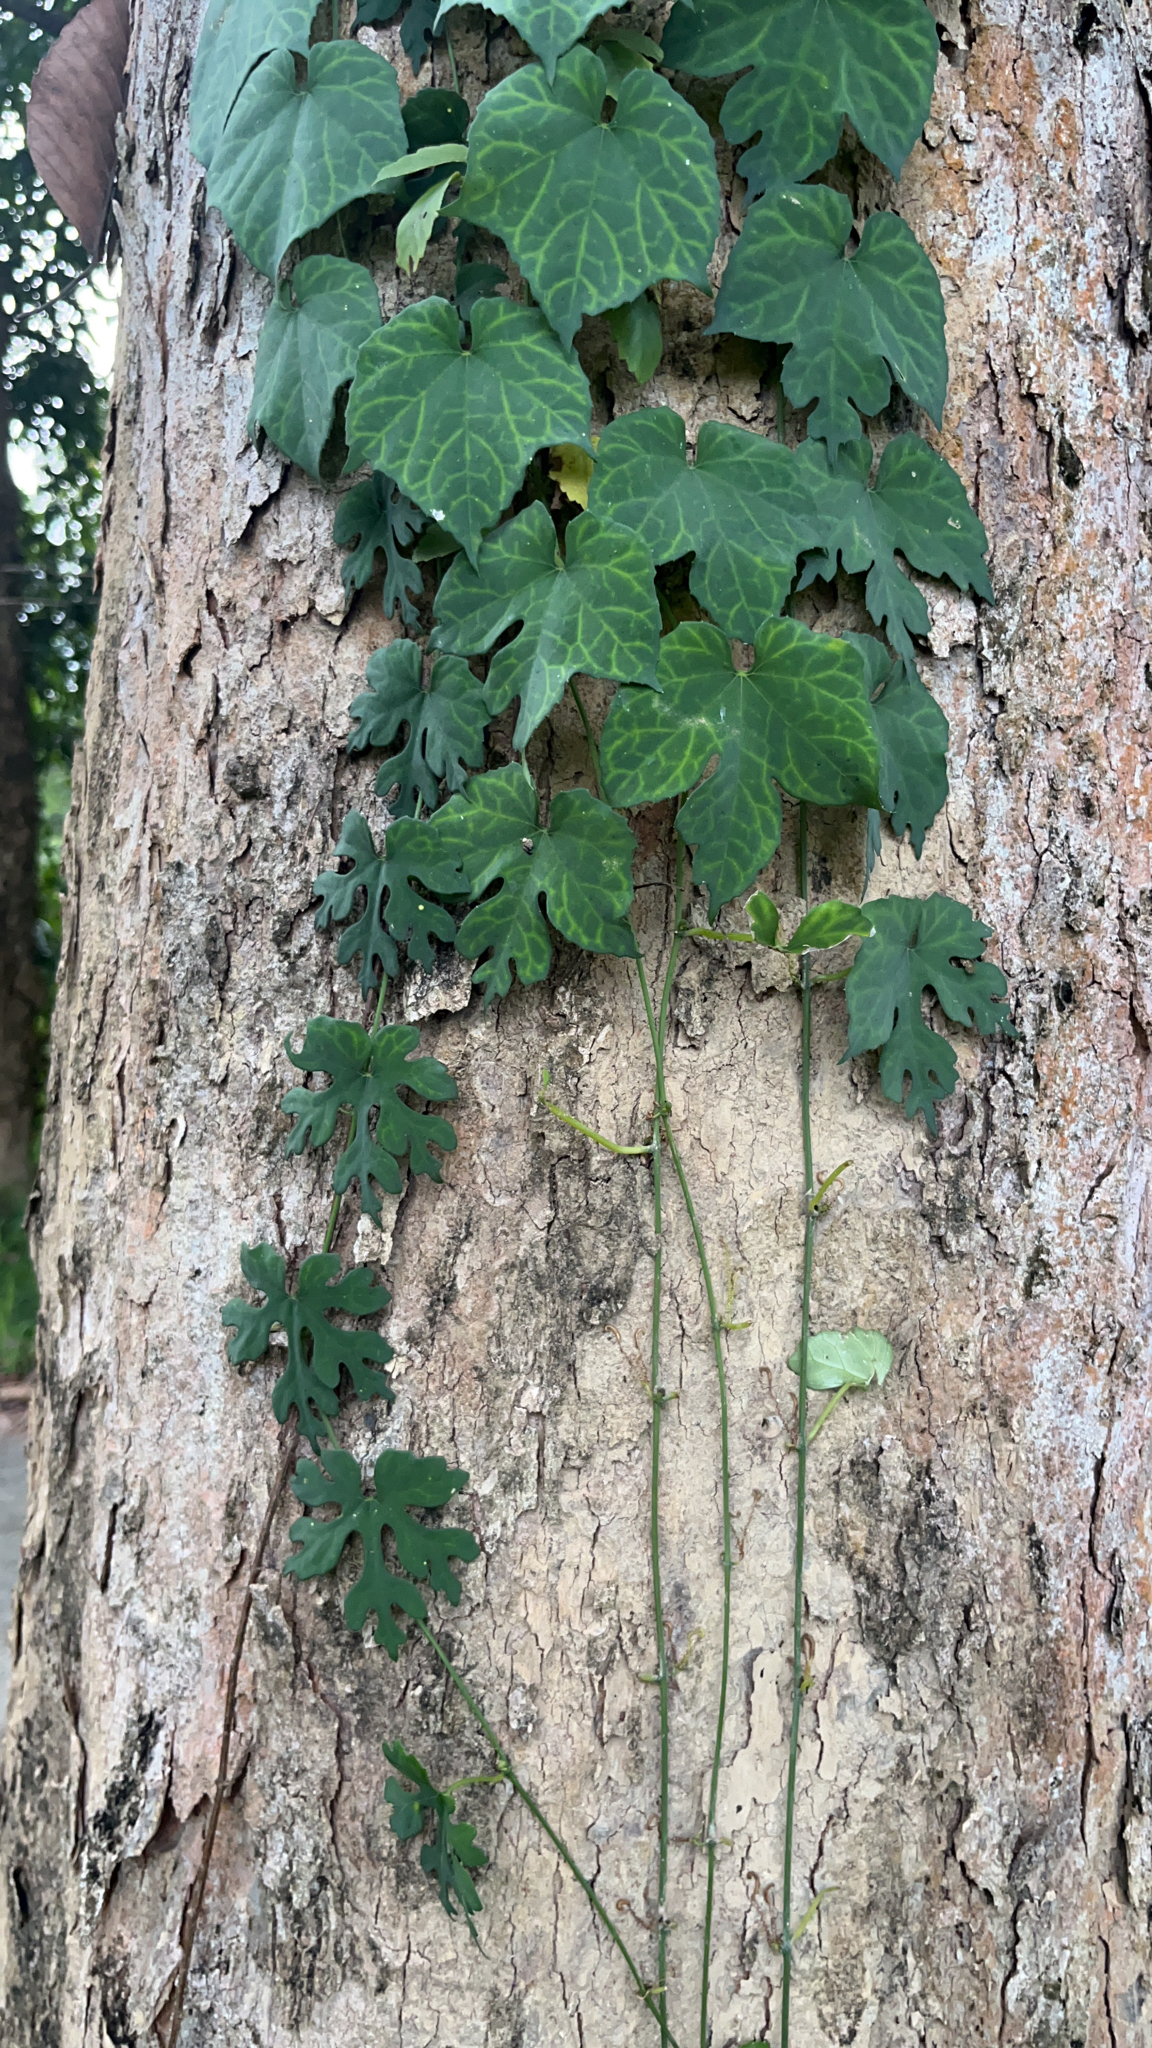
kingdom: Plantae
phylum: Tracheophyta
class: Magnoliopsida
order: Cucurbitales
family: Cucurbitaceae
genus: Momordica
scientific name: Momordica charantia
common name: Balsampear
